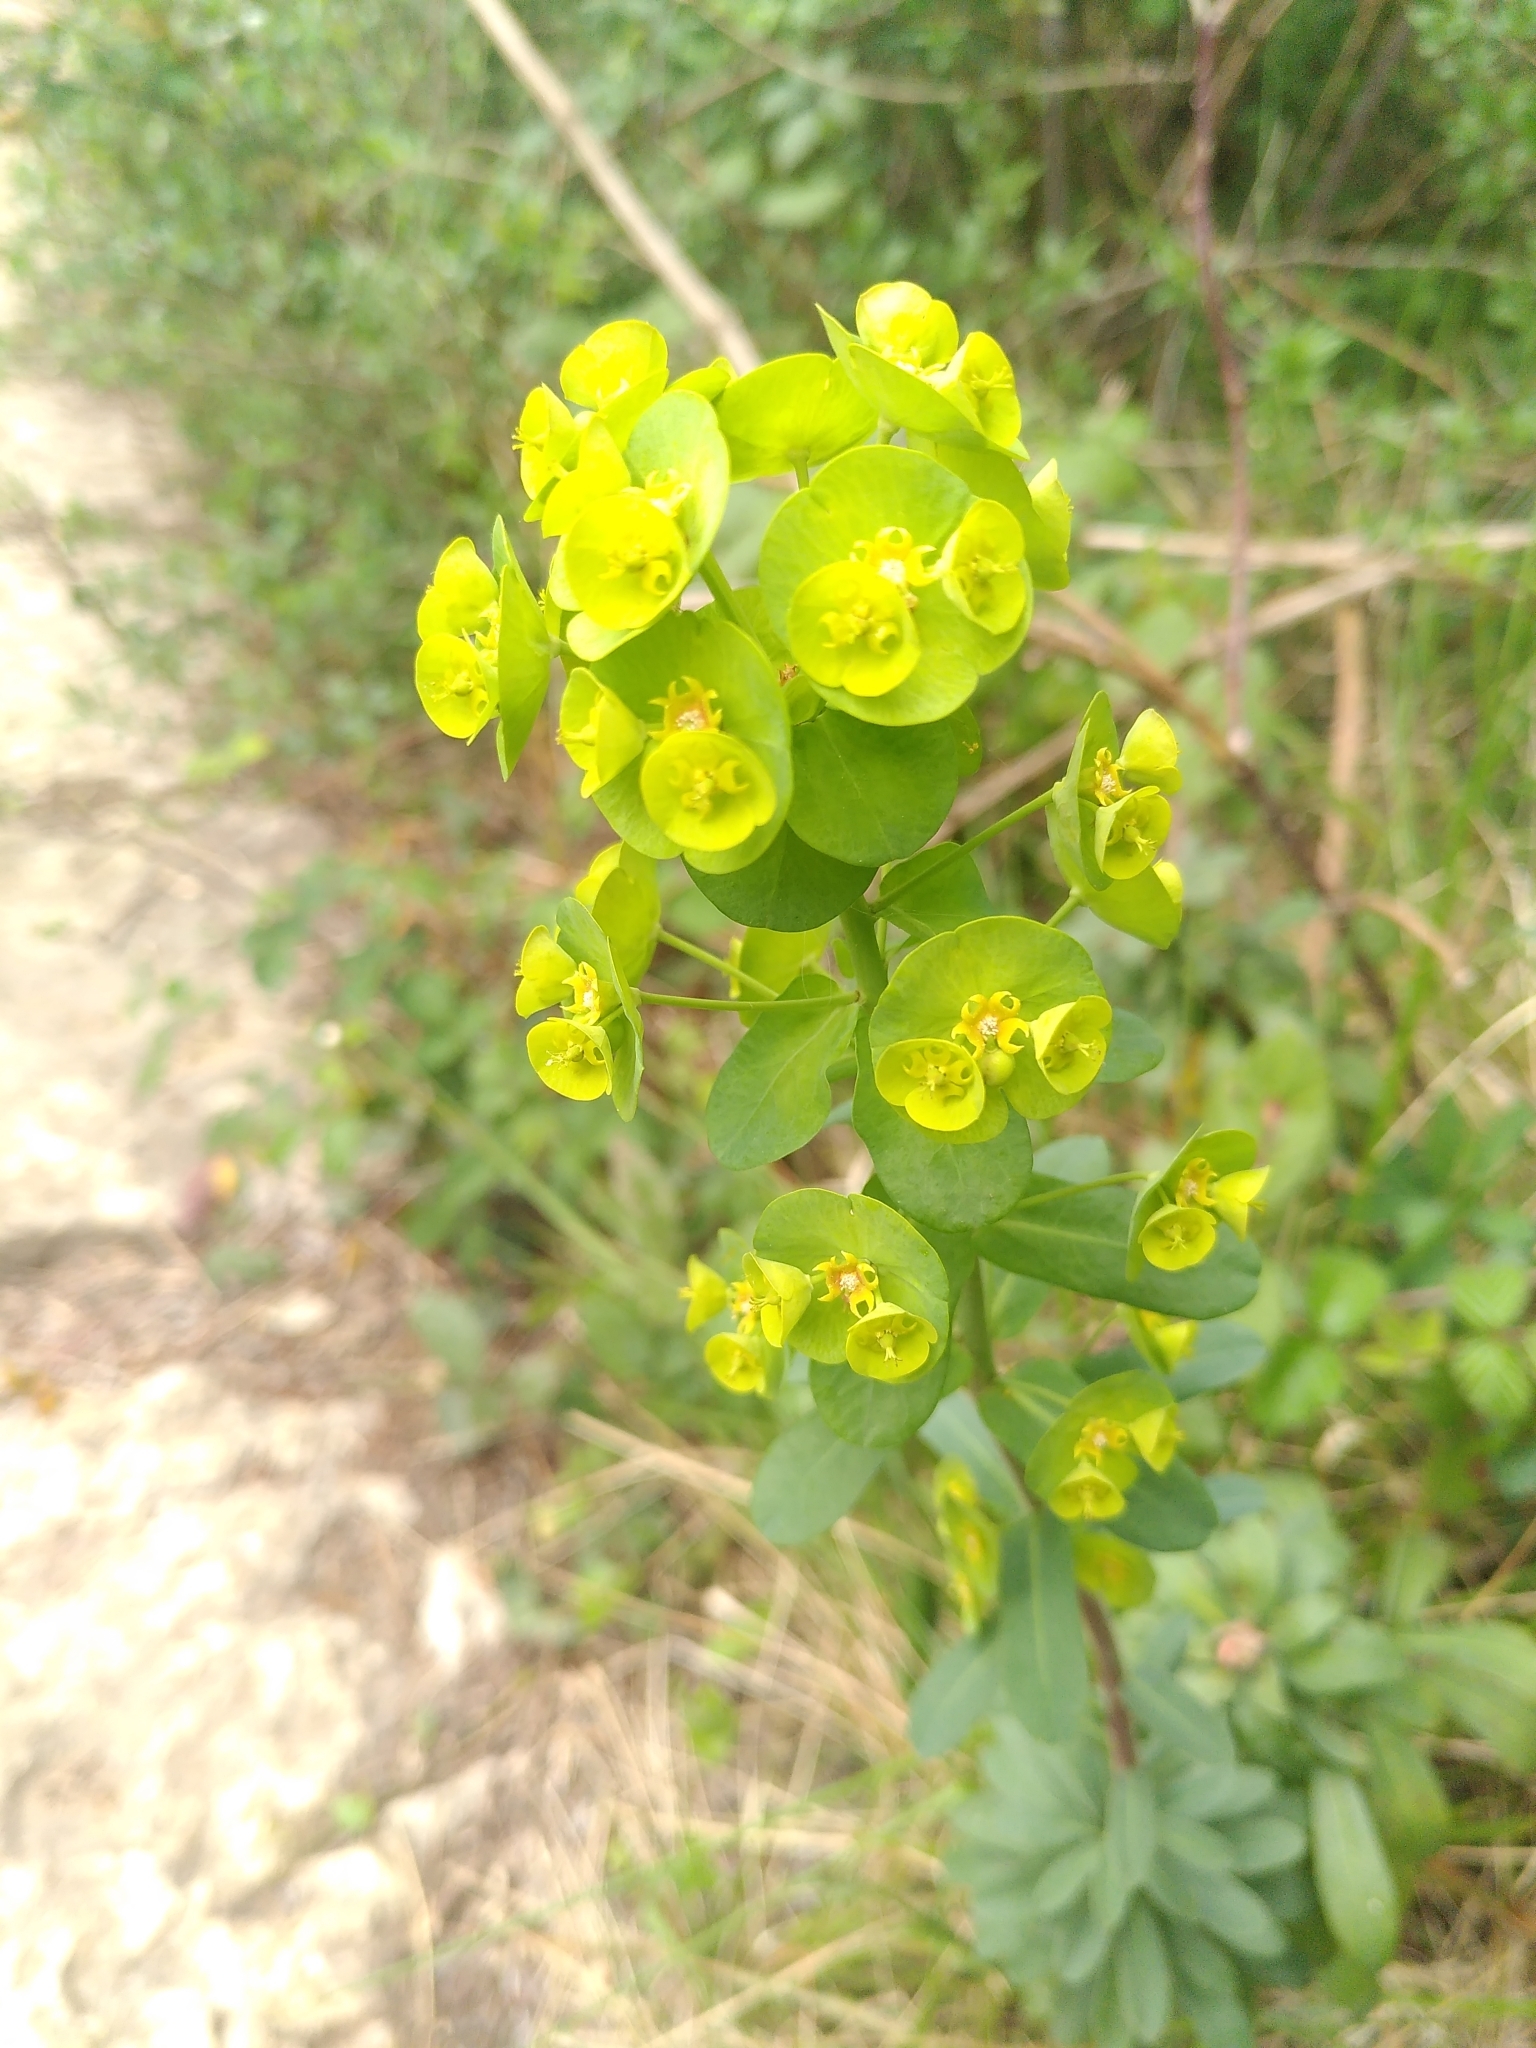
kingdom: Plantae
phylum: Tracheophyta
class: Magnoliopsida
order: Malpighiales
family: Euphorbiaceae
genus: Euphorbia
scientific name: Euphorbia amygdaloides
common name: Wood spurge
